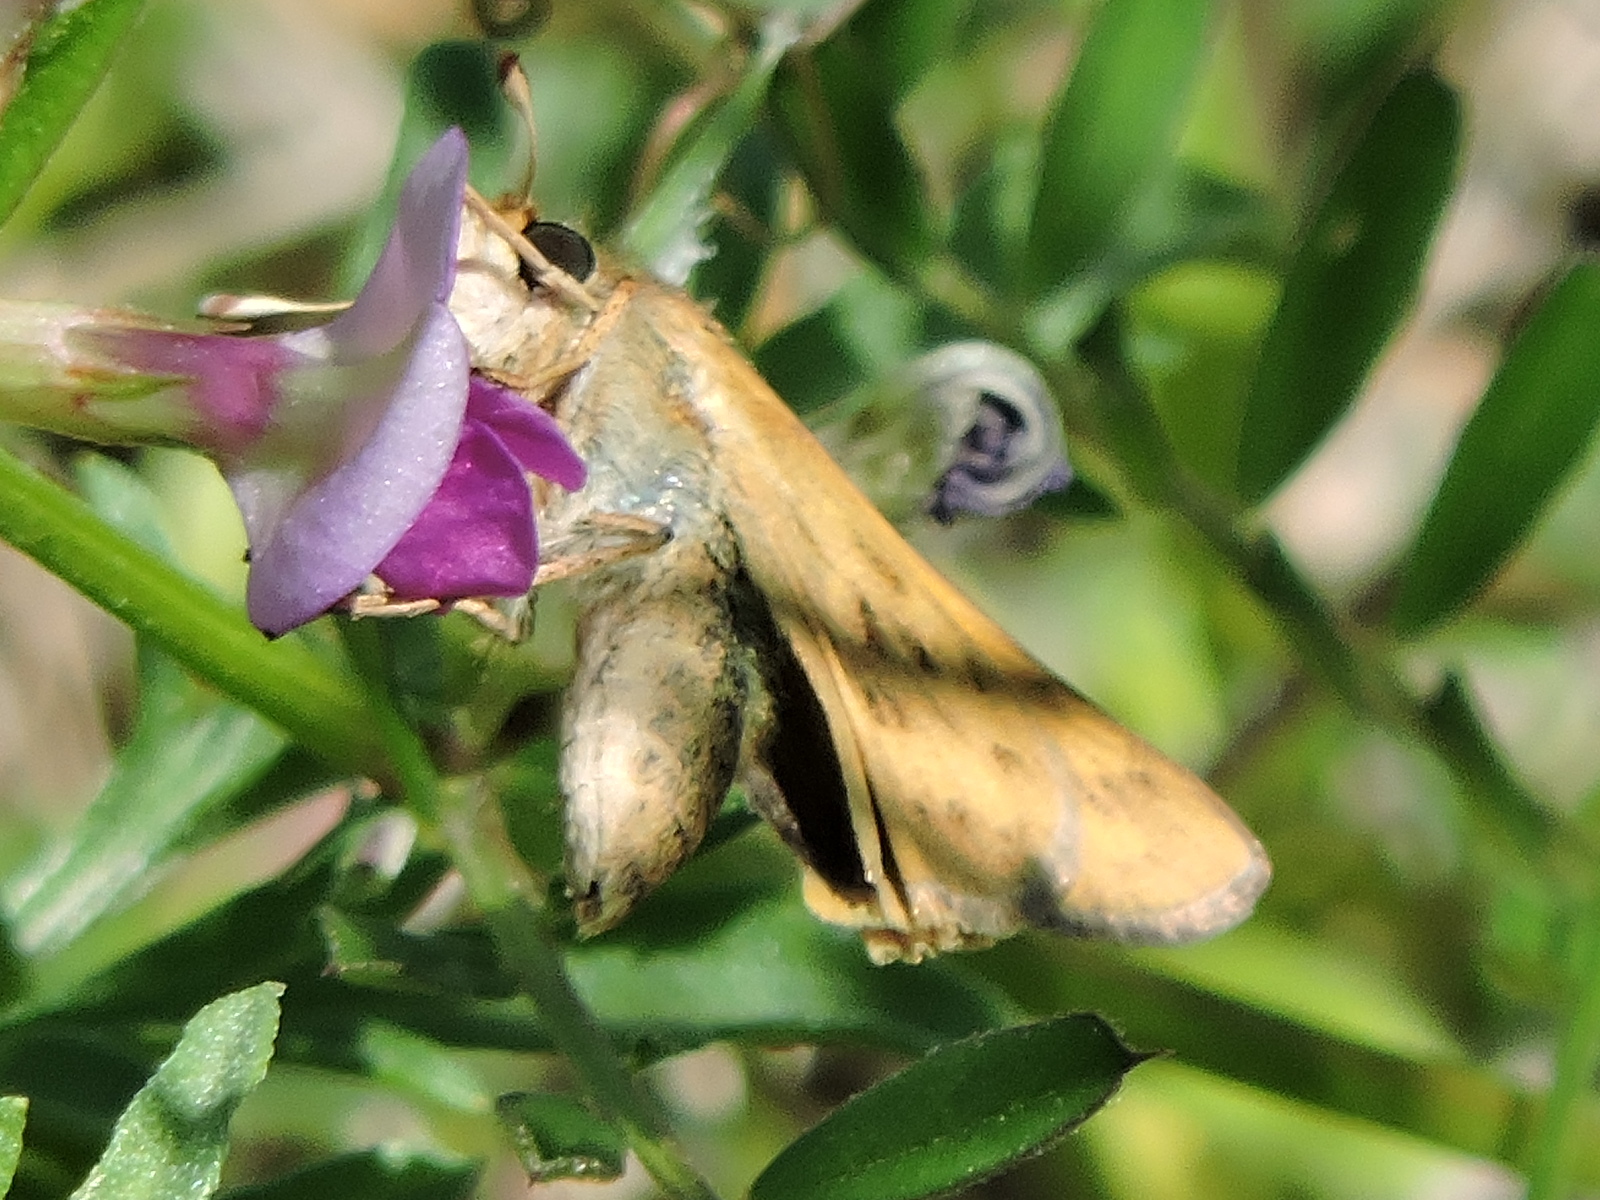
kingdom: Animalia
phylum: Arthropoda
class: Insecta
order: Lepidoptera
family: Hesperiidae
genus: Hylephila
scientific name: Hylephila phyleus
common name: Fiery skipper
